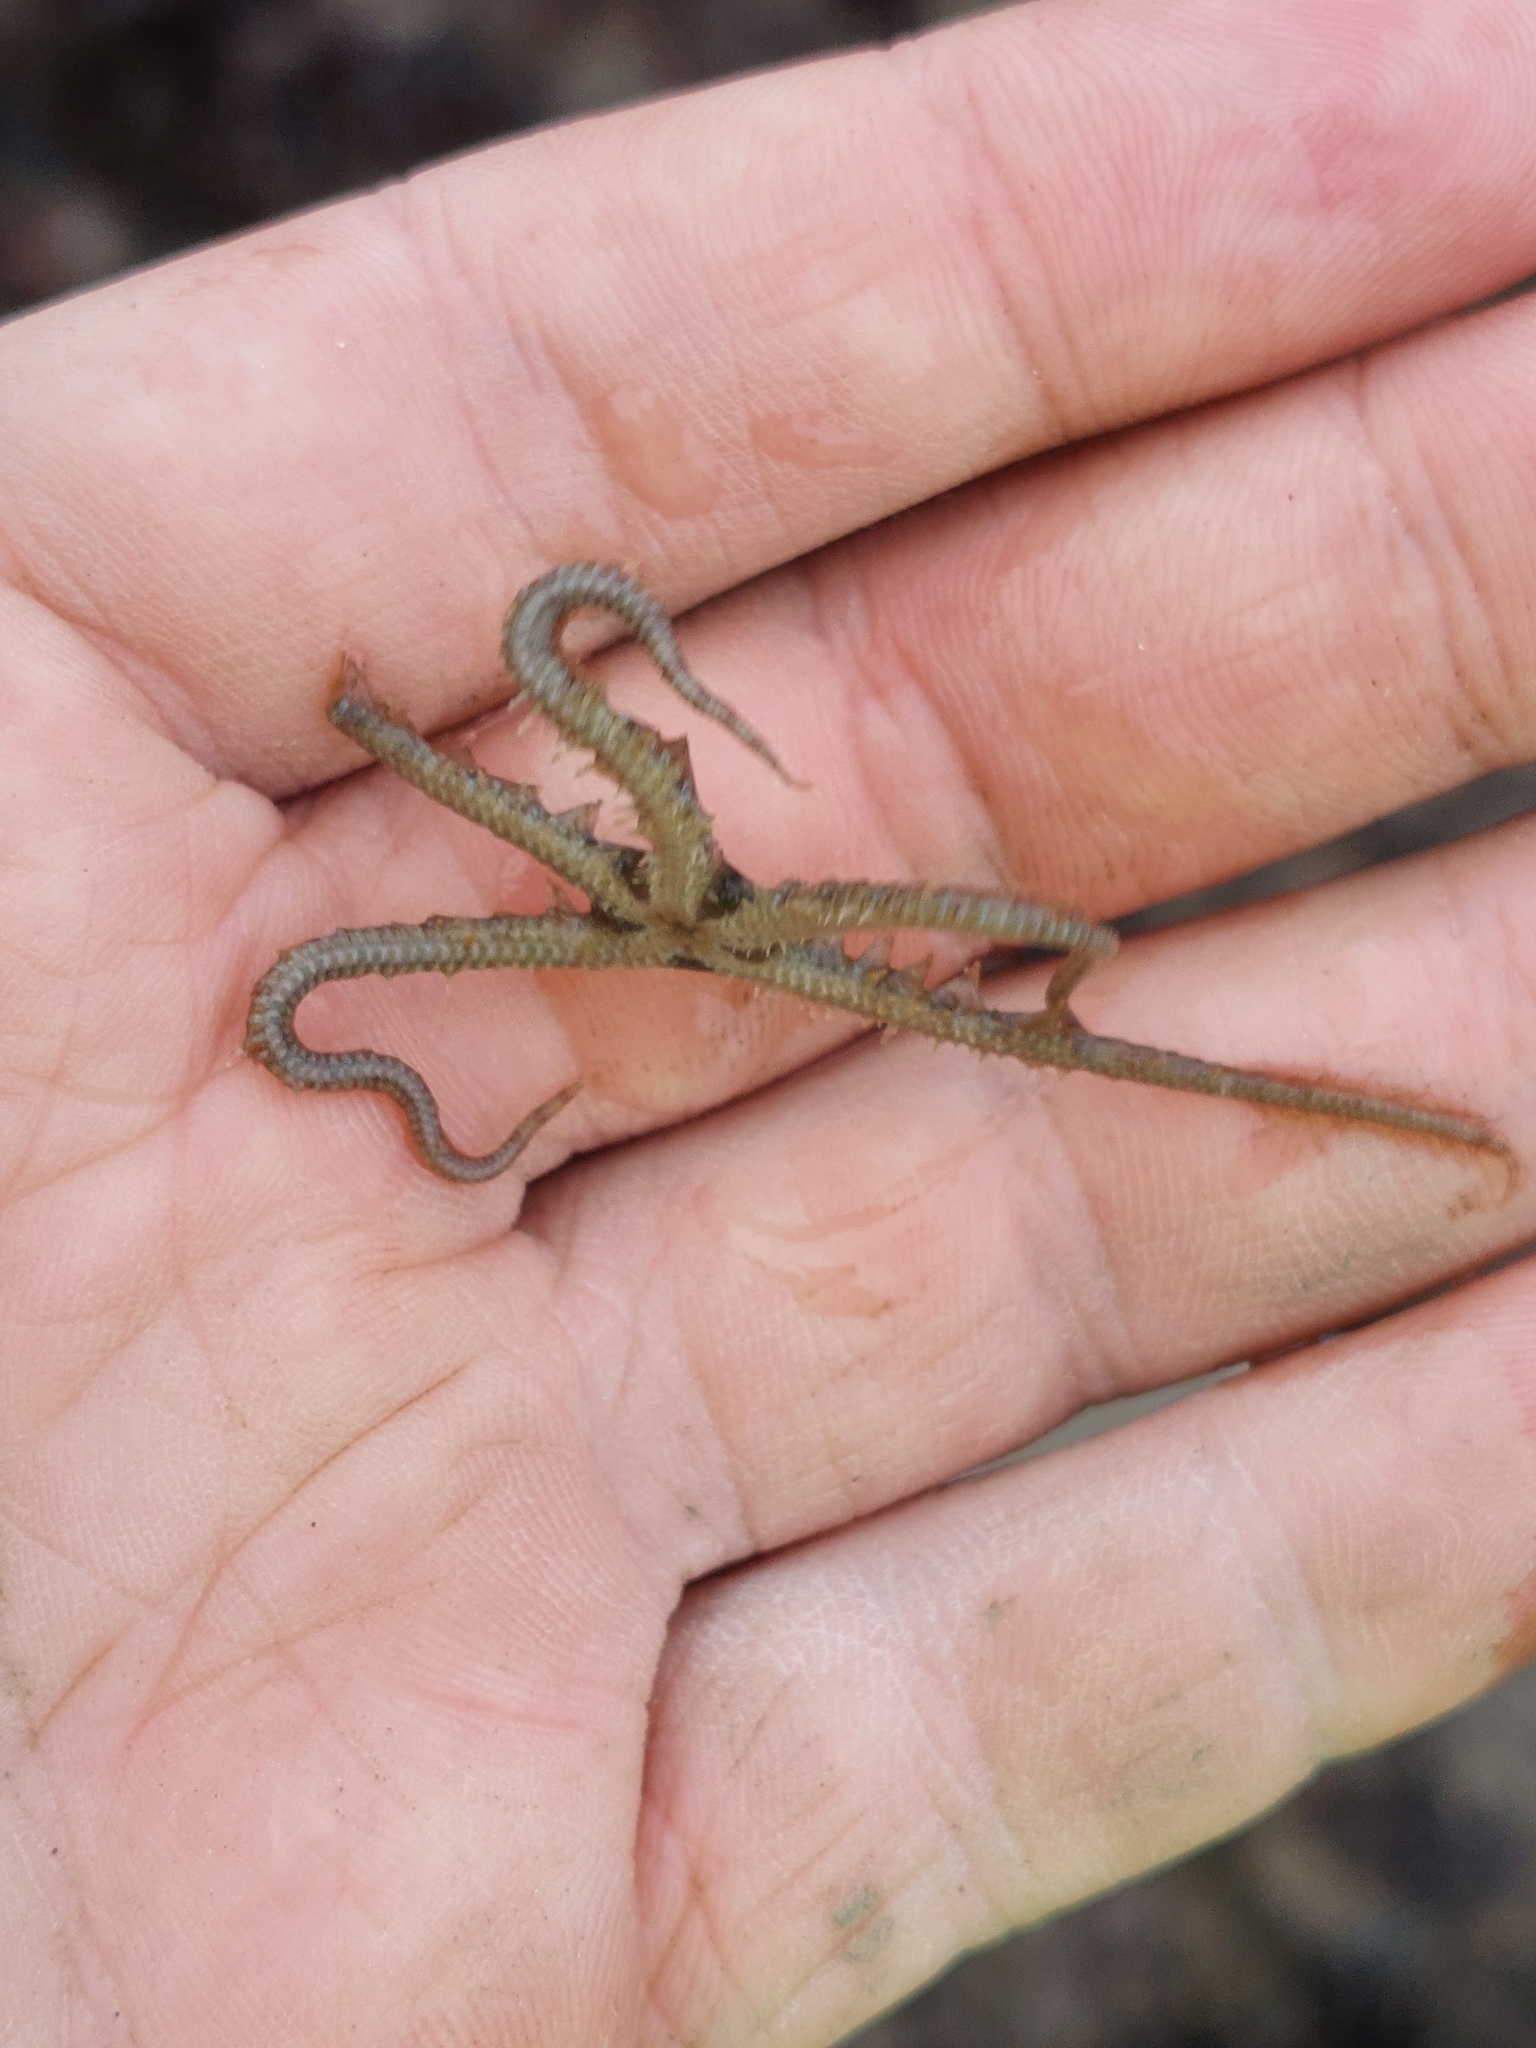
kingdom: Animalia
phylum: Echinodermata
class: Ophiuroidea
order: Amphilepidida
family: Ophiotrichidae
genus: Ophiothrix
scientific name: Ophiothrix fragilis
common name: Common brittlestar
